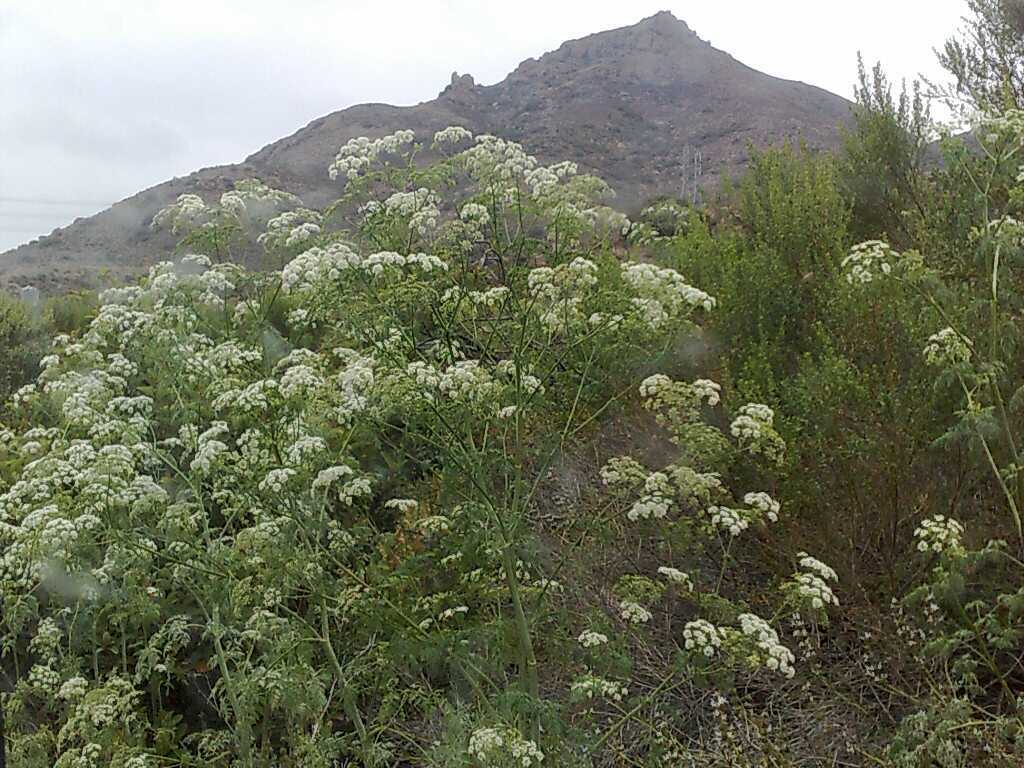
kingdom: Plantae
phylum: Tracheophyta
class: Magnoliopsida
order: Apiales
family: Apiaceae
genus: Conium
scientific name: Conium maculatum
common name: Hemlock
